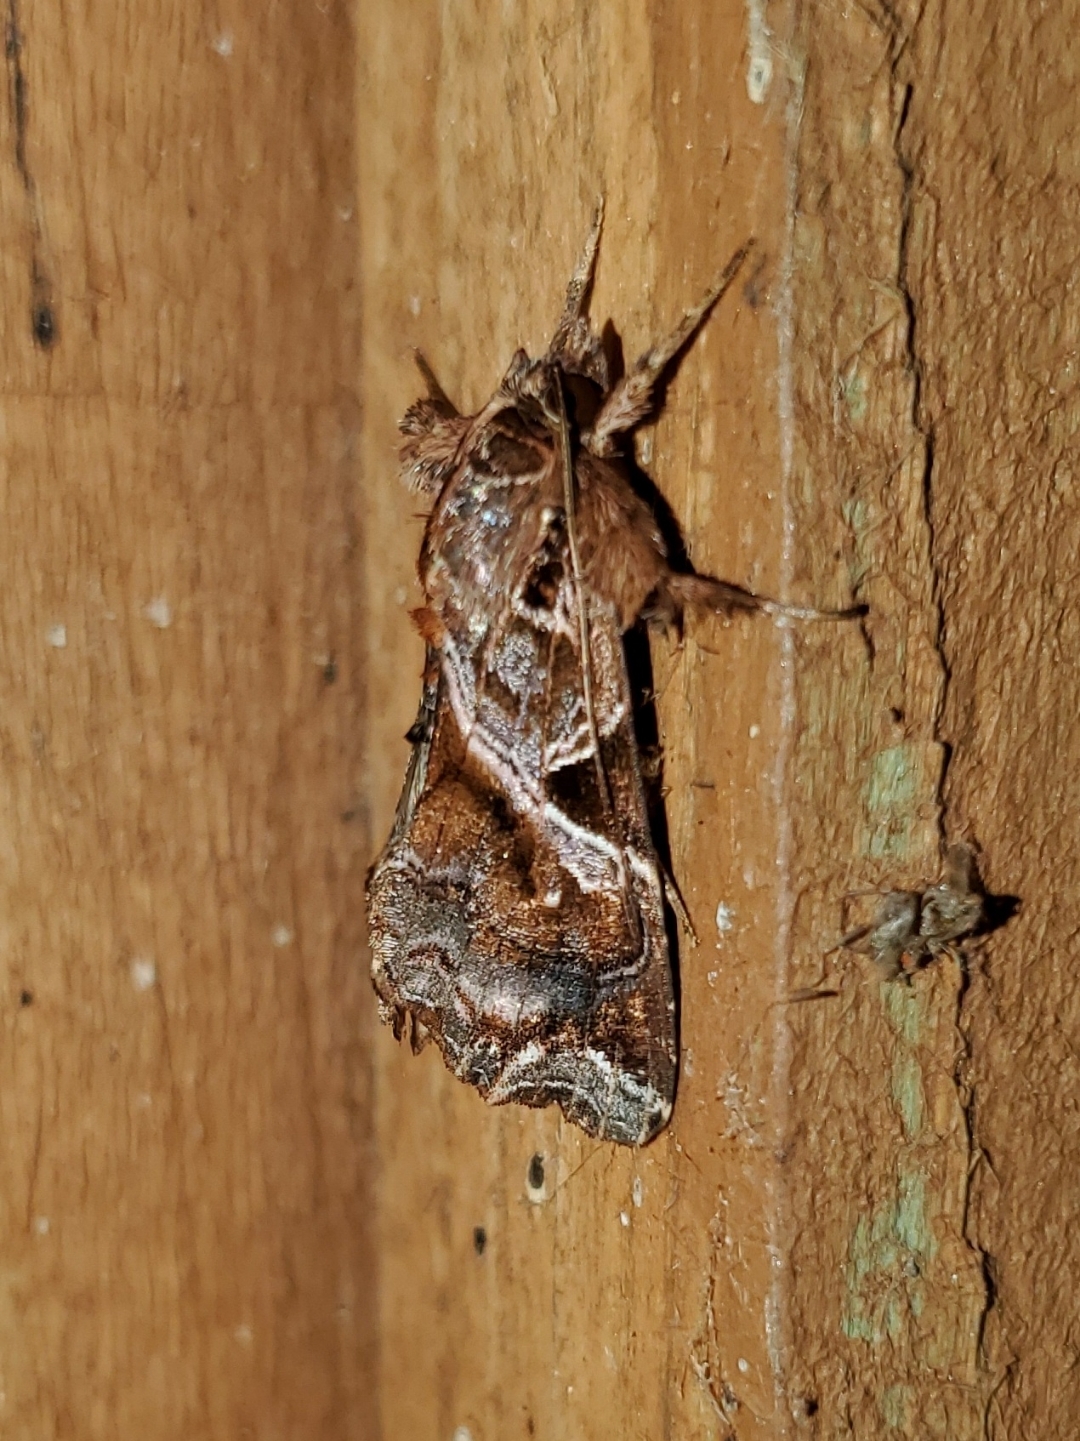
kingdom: Animalia
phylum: Arthropoda
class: Insecta
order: Lepidoptera
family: Noctuidae
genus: Callopistria
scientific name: Callopistria floridensis
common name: Florida fern moth
